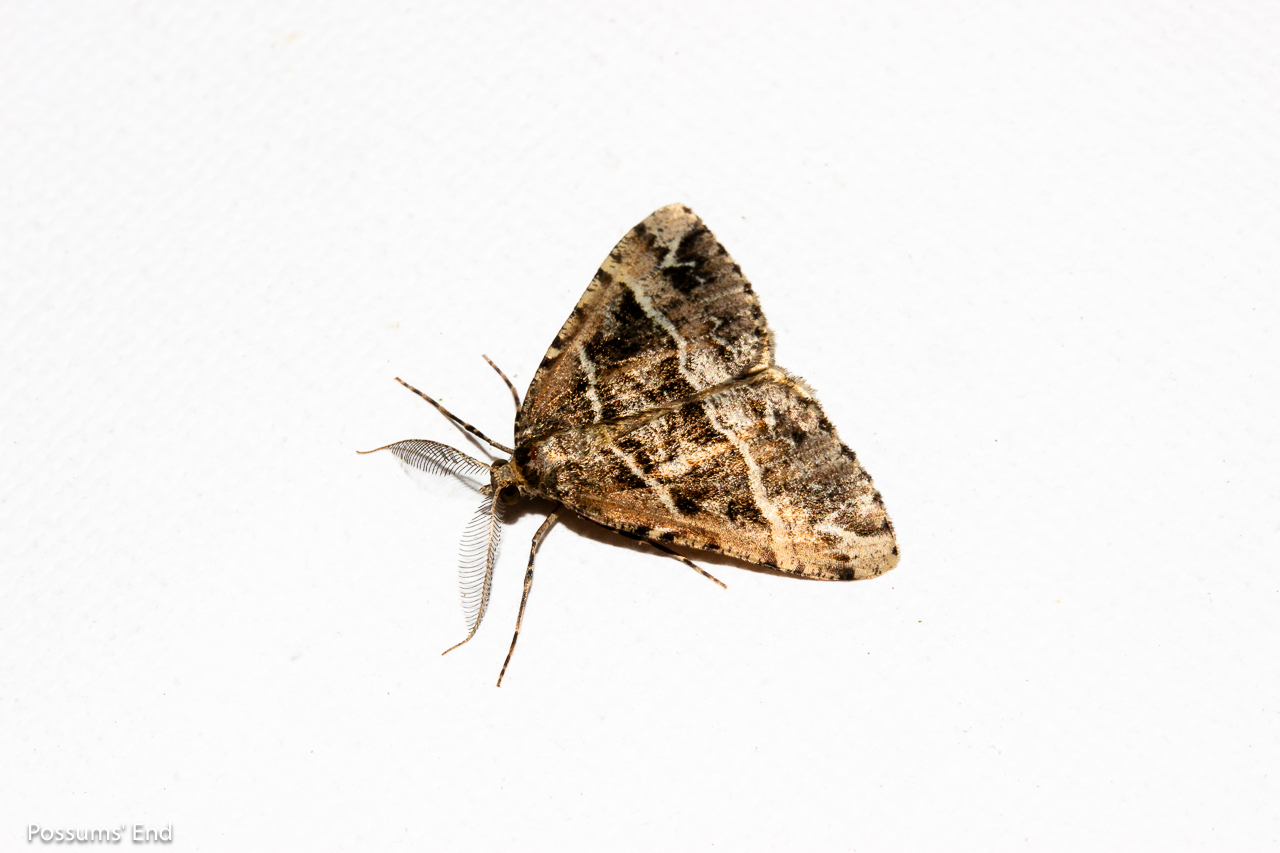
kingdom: Animalia
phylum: Arthropoda
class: Insecta
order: Lepidoptera
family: Geometridae
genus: Pseudocoremia
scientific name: Pseudocoremia melinata
